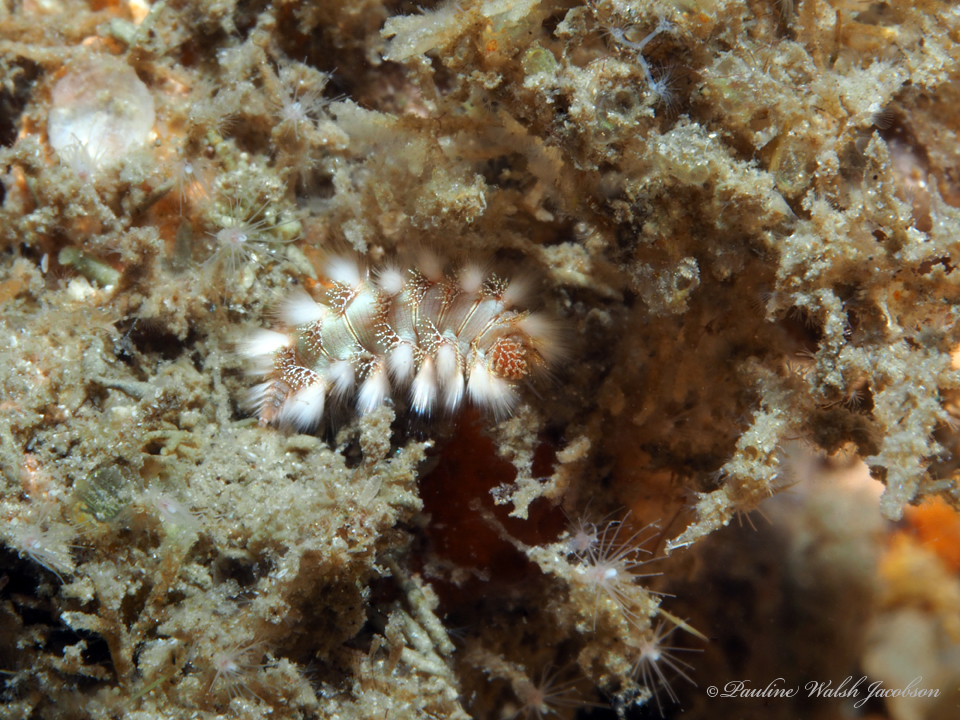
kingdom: Animalia
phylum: Annelida
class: Polychaeta
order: Amphinomida
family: Amphinomidae
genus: Hermodice
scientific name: Hermodice carunculata
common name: Bearded fireworm
